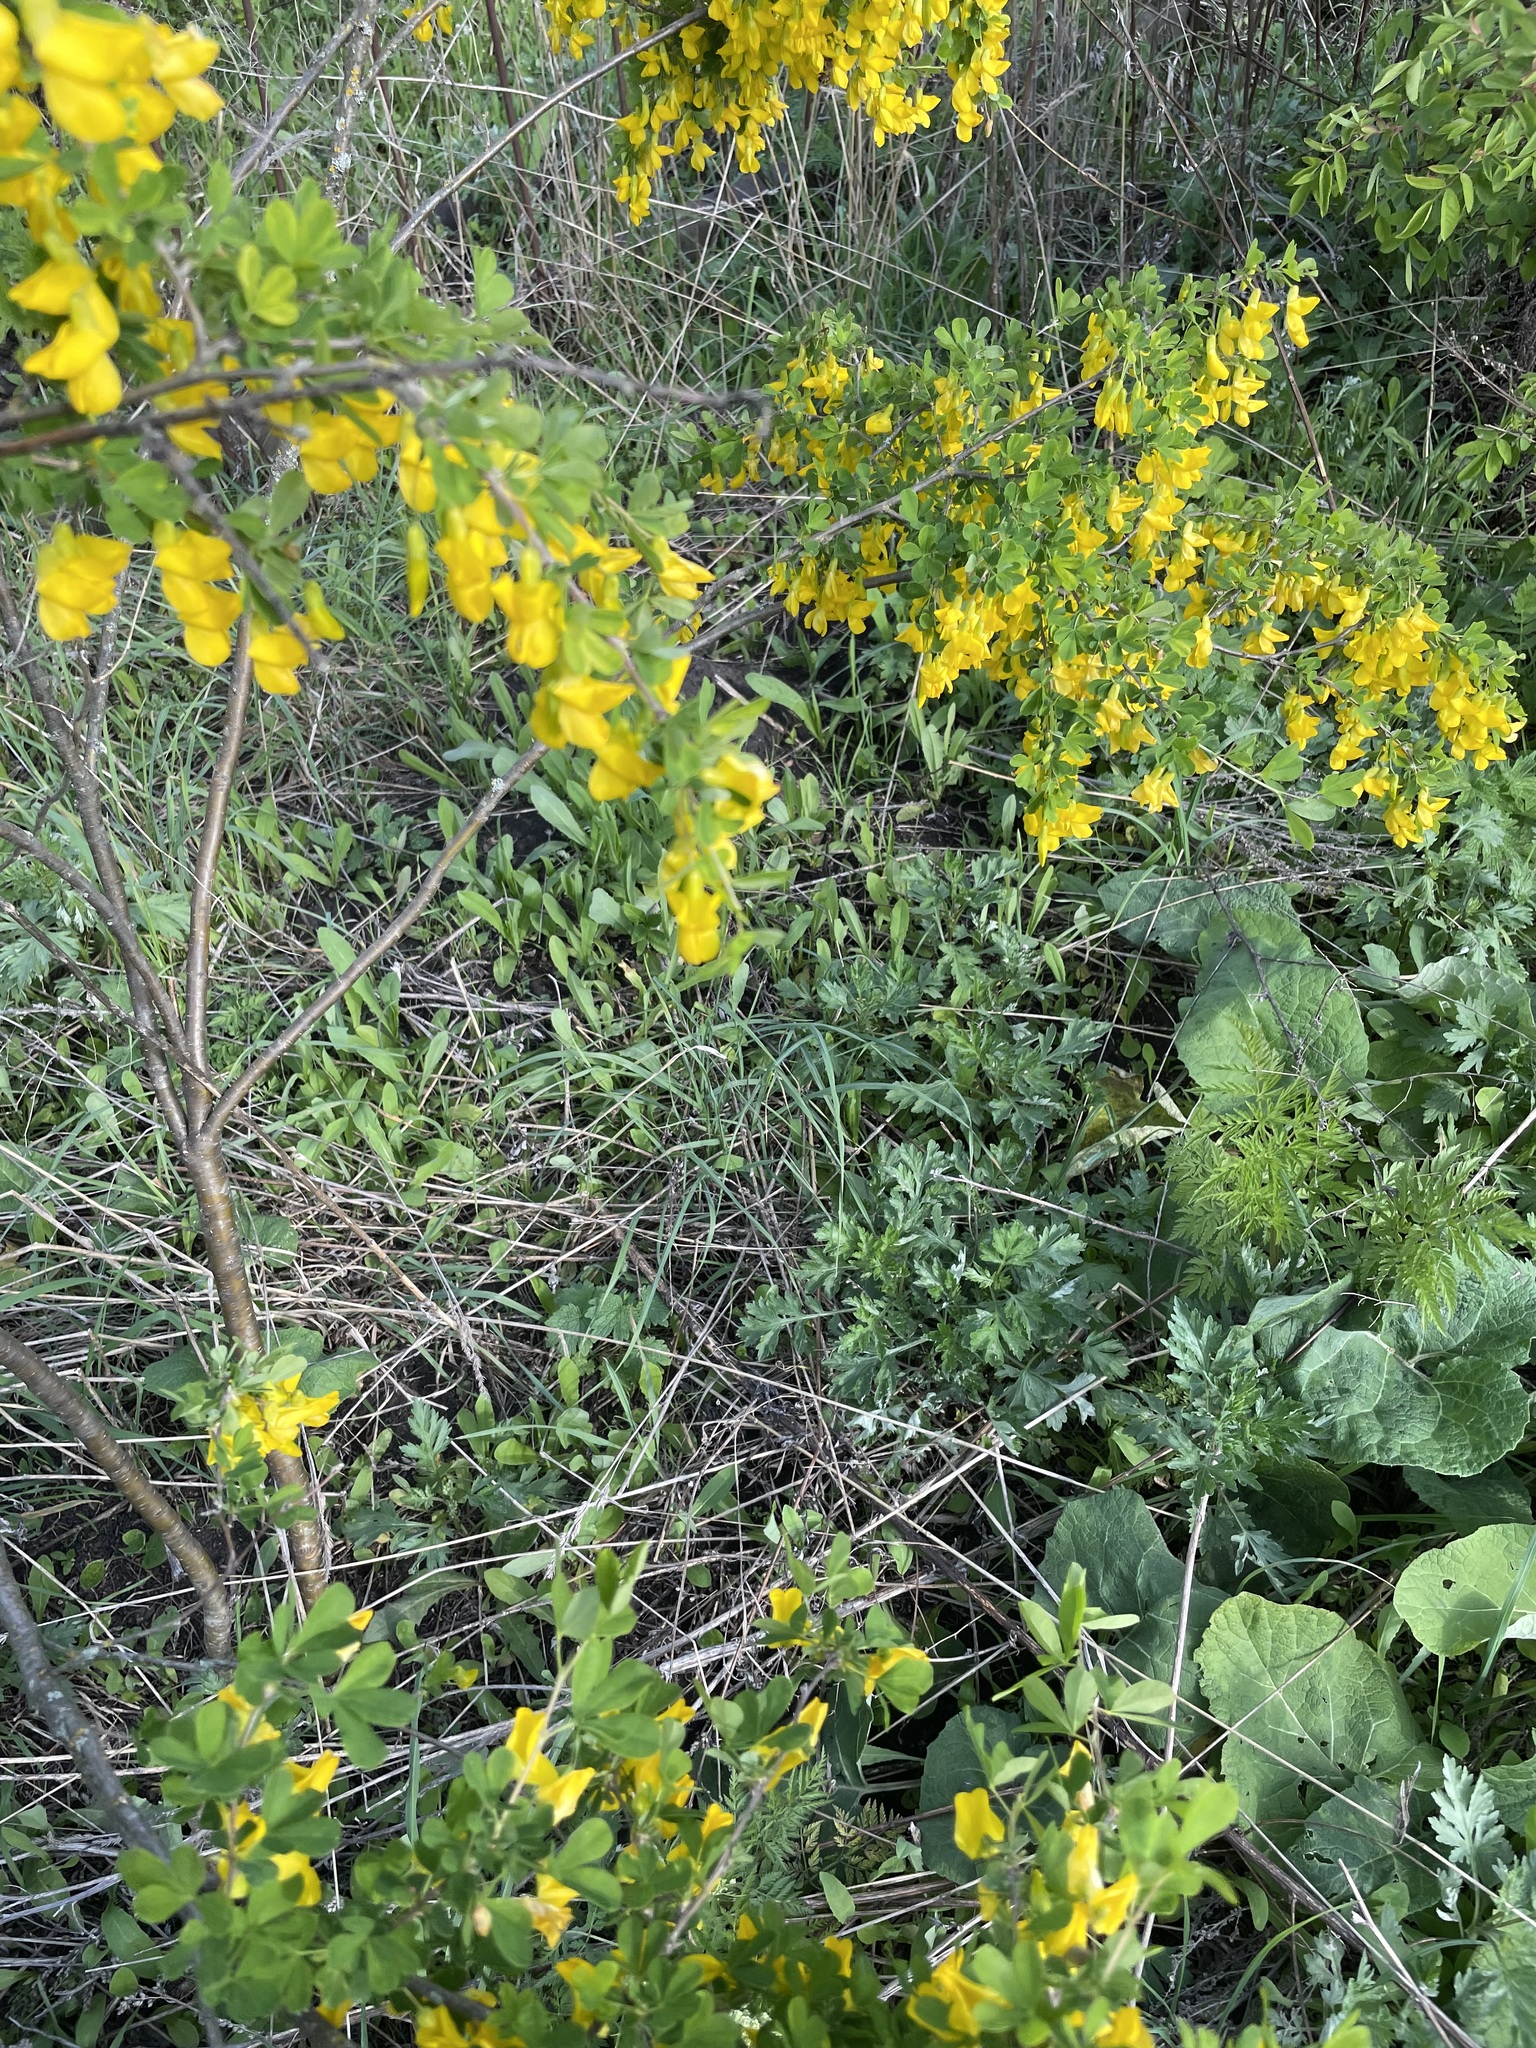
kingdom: Plantae
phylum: Tracheophyta
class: Magnoliopsida
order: Fabales
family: Fabaceae
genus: Caragana
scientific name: Caragana frutex
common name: Russian peashrub
